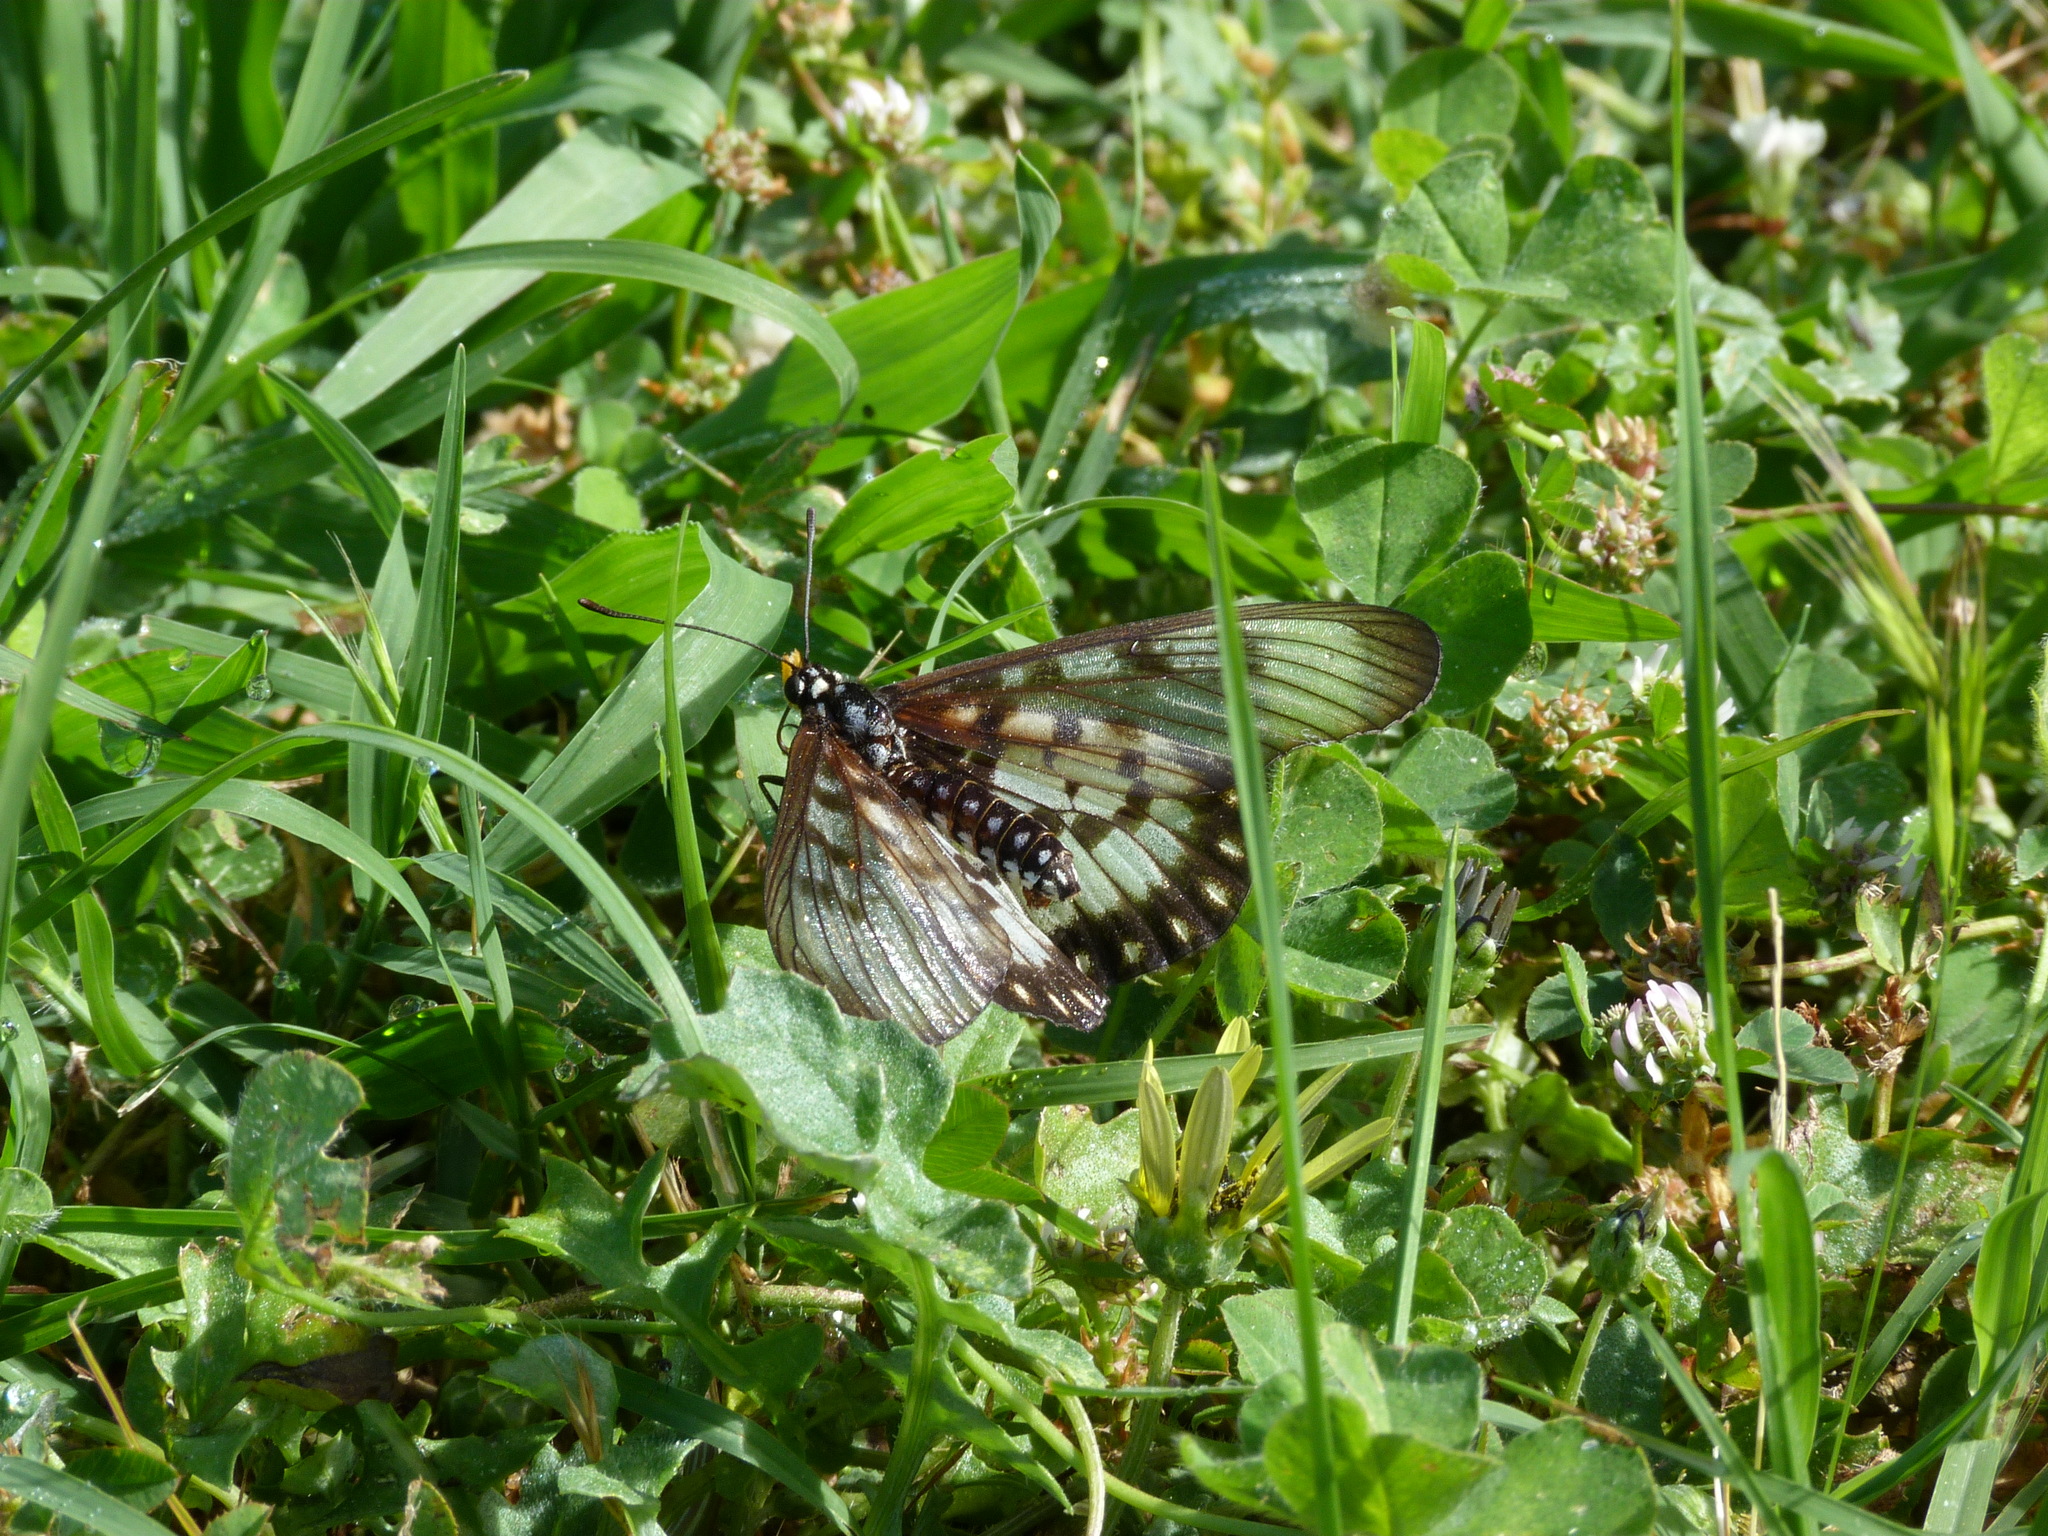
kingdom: Animalia
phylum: Arthropoda
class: Insecta
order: Lepidoptera
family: Nymphalidae
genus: Acraea
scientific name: Acraea andromacha
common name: Glasswing
